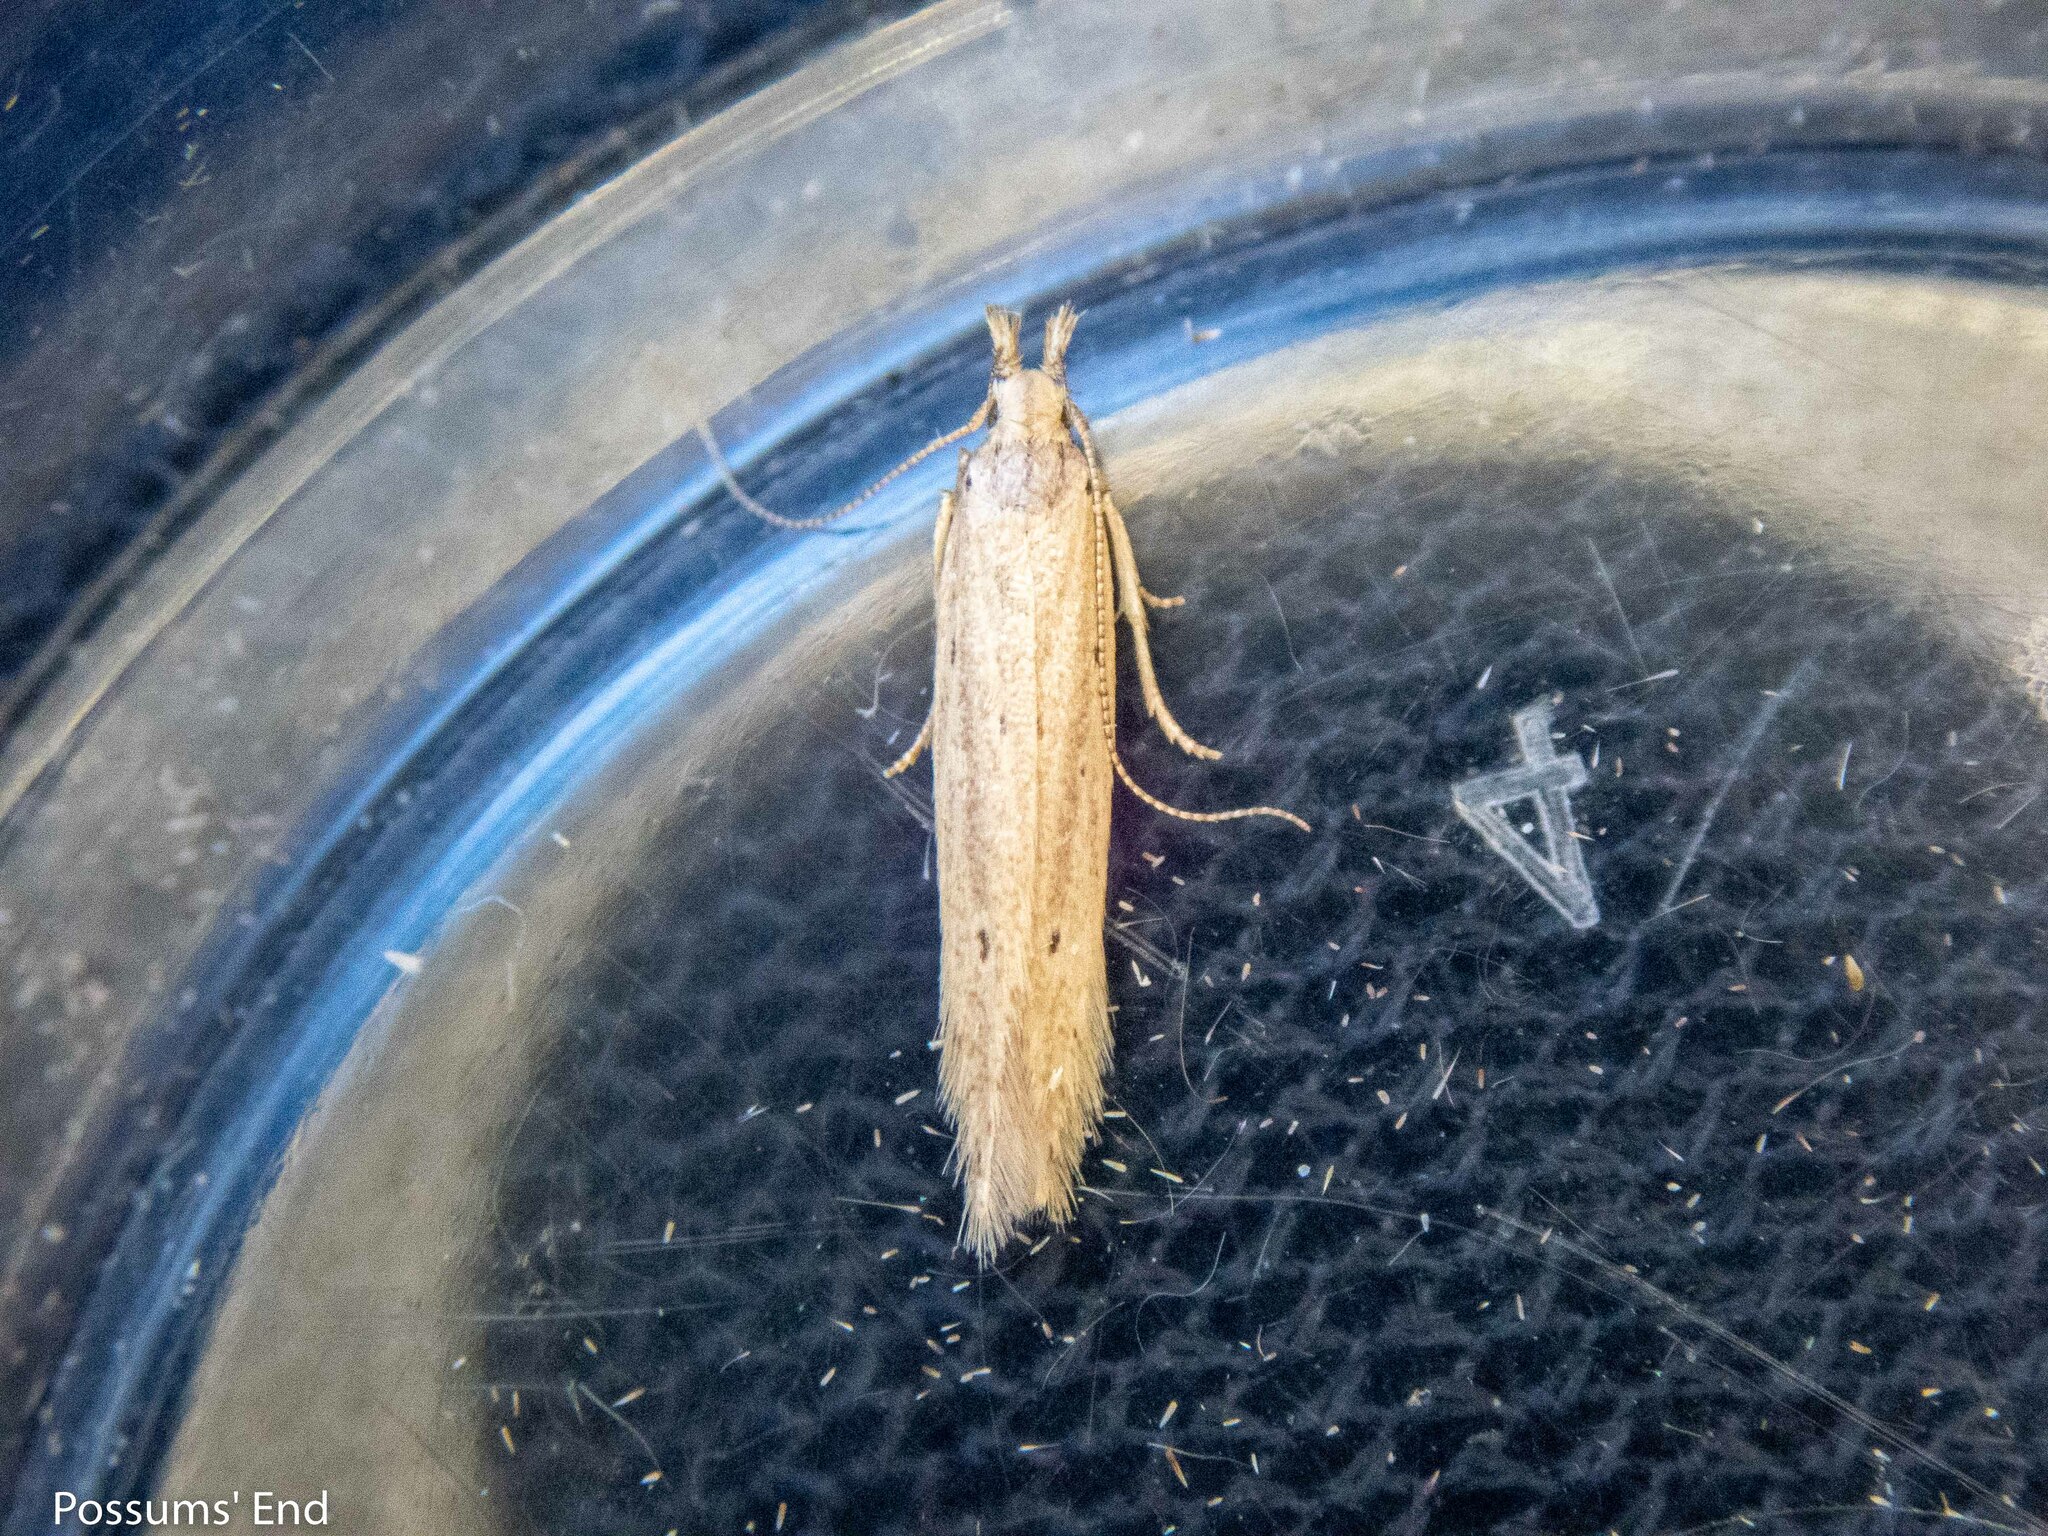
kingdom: Animalia
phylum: Arthropoda
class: Insecta
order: Lepidoptera
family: Gelechiidae
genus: Epiphthora
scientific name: Epiphthora calamogonus
